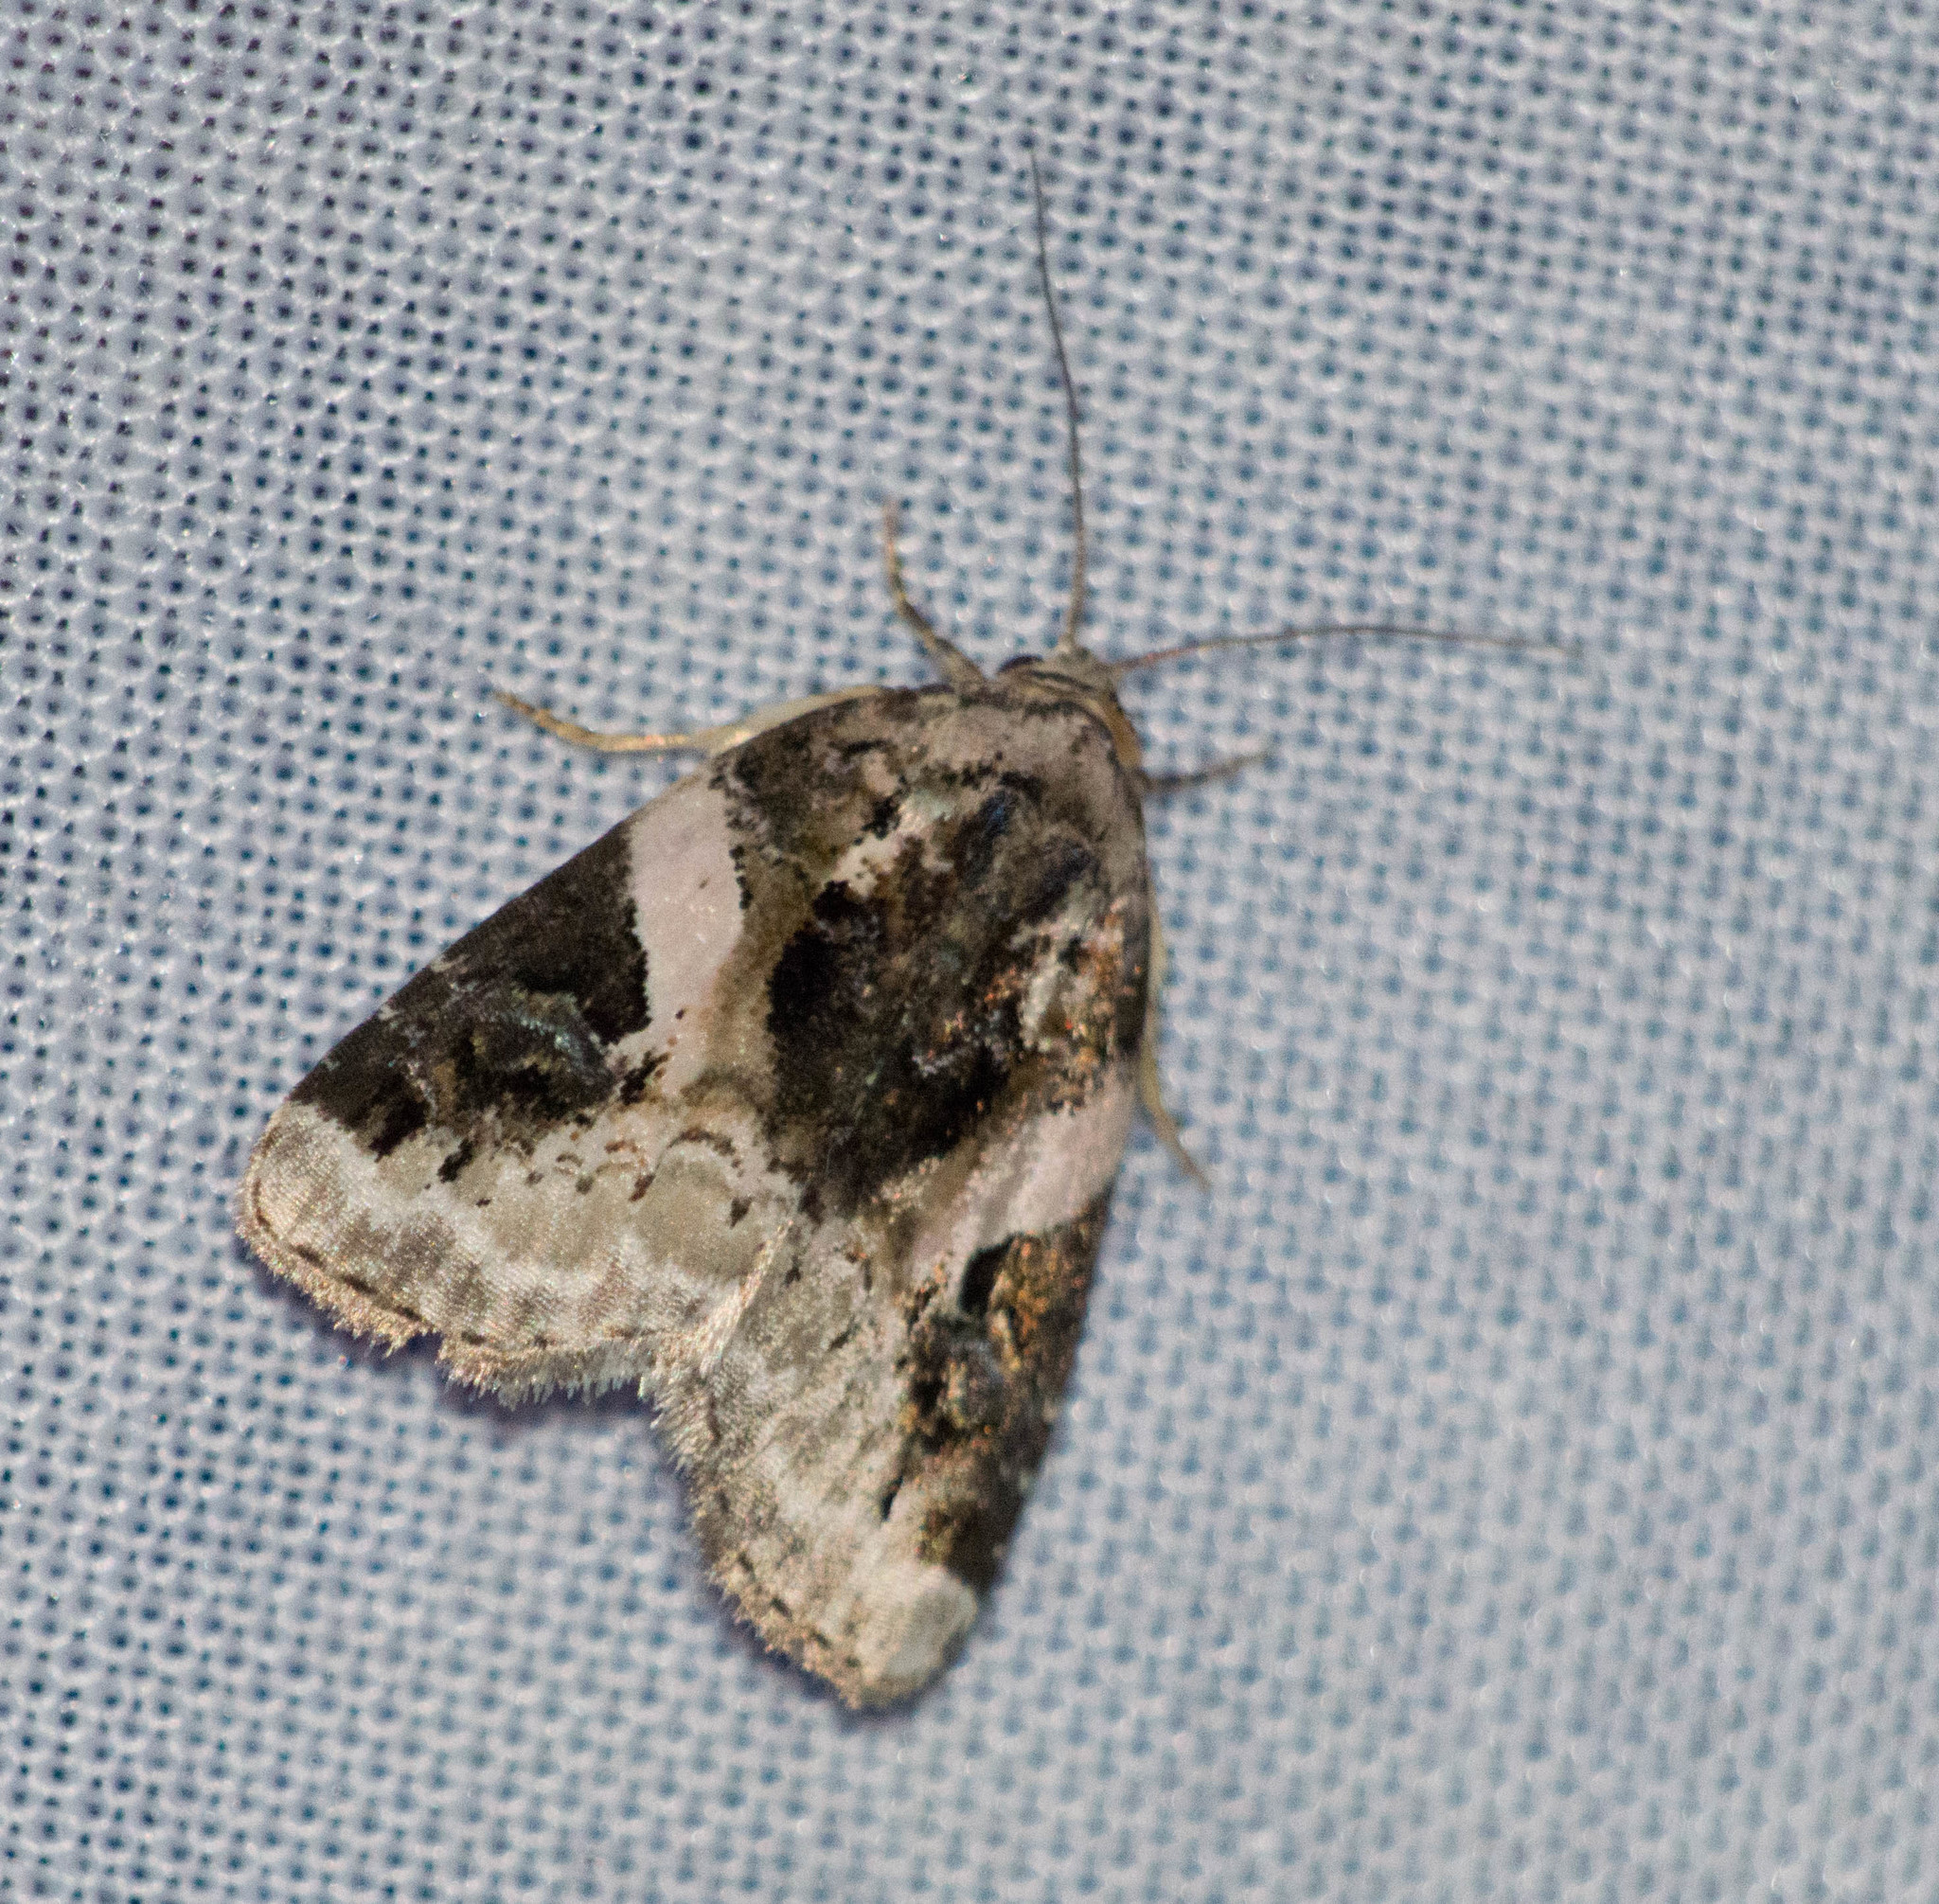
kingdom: Animalia
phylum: Arthropoda
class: Insecta
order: Lepidoptera
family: Noctuidae
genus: Pseudeustrotia
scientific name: Pseudeustrotia carneola
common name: Pink-barred lithacodia moth
